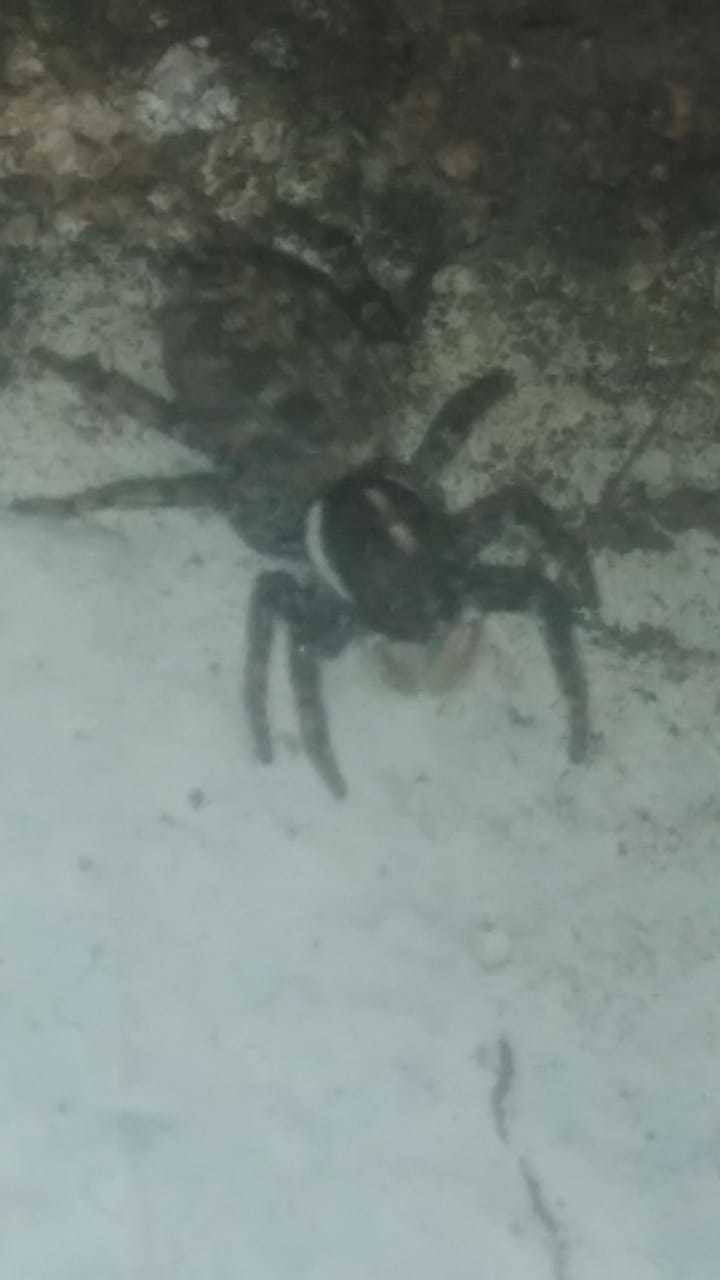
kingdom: Animalia
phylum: Arthropoda
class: Arachnida
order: Araneae
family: Salticidae
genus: Menemerus
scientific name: Menemerus semilimbatus
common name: Jumping spider
